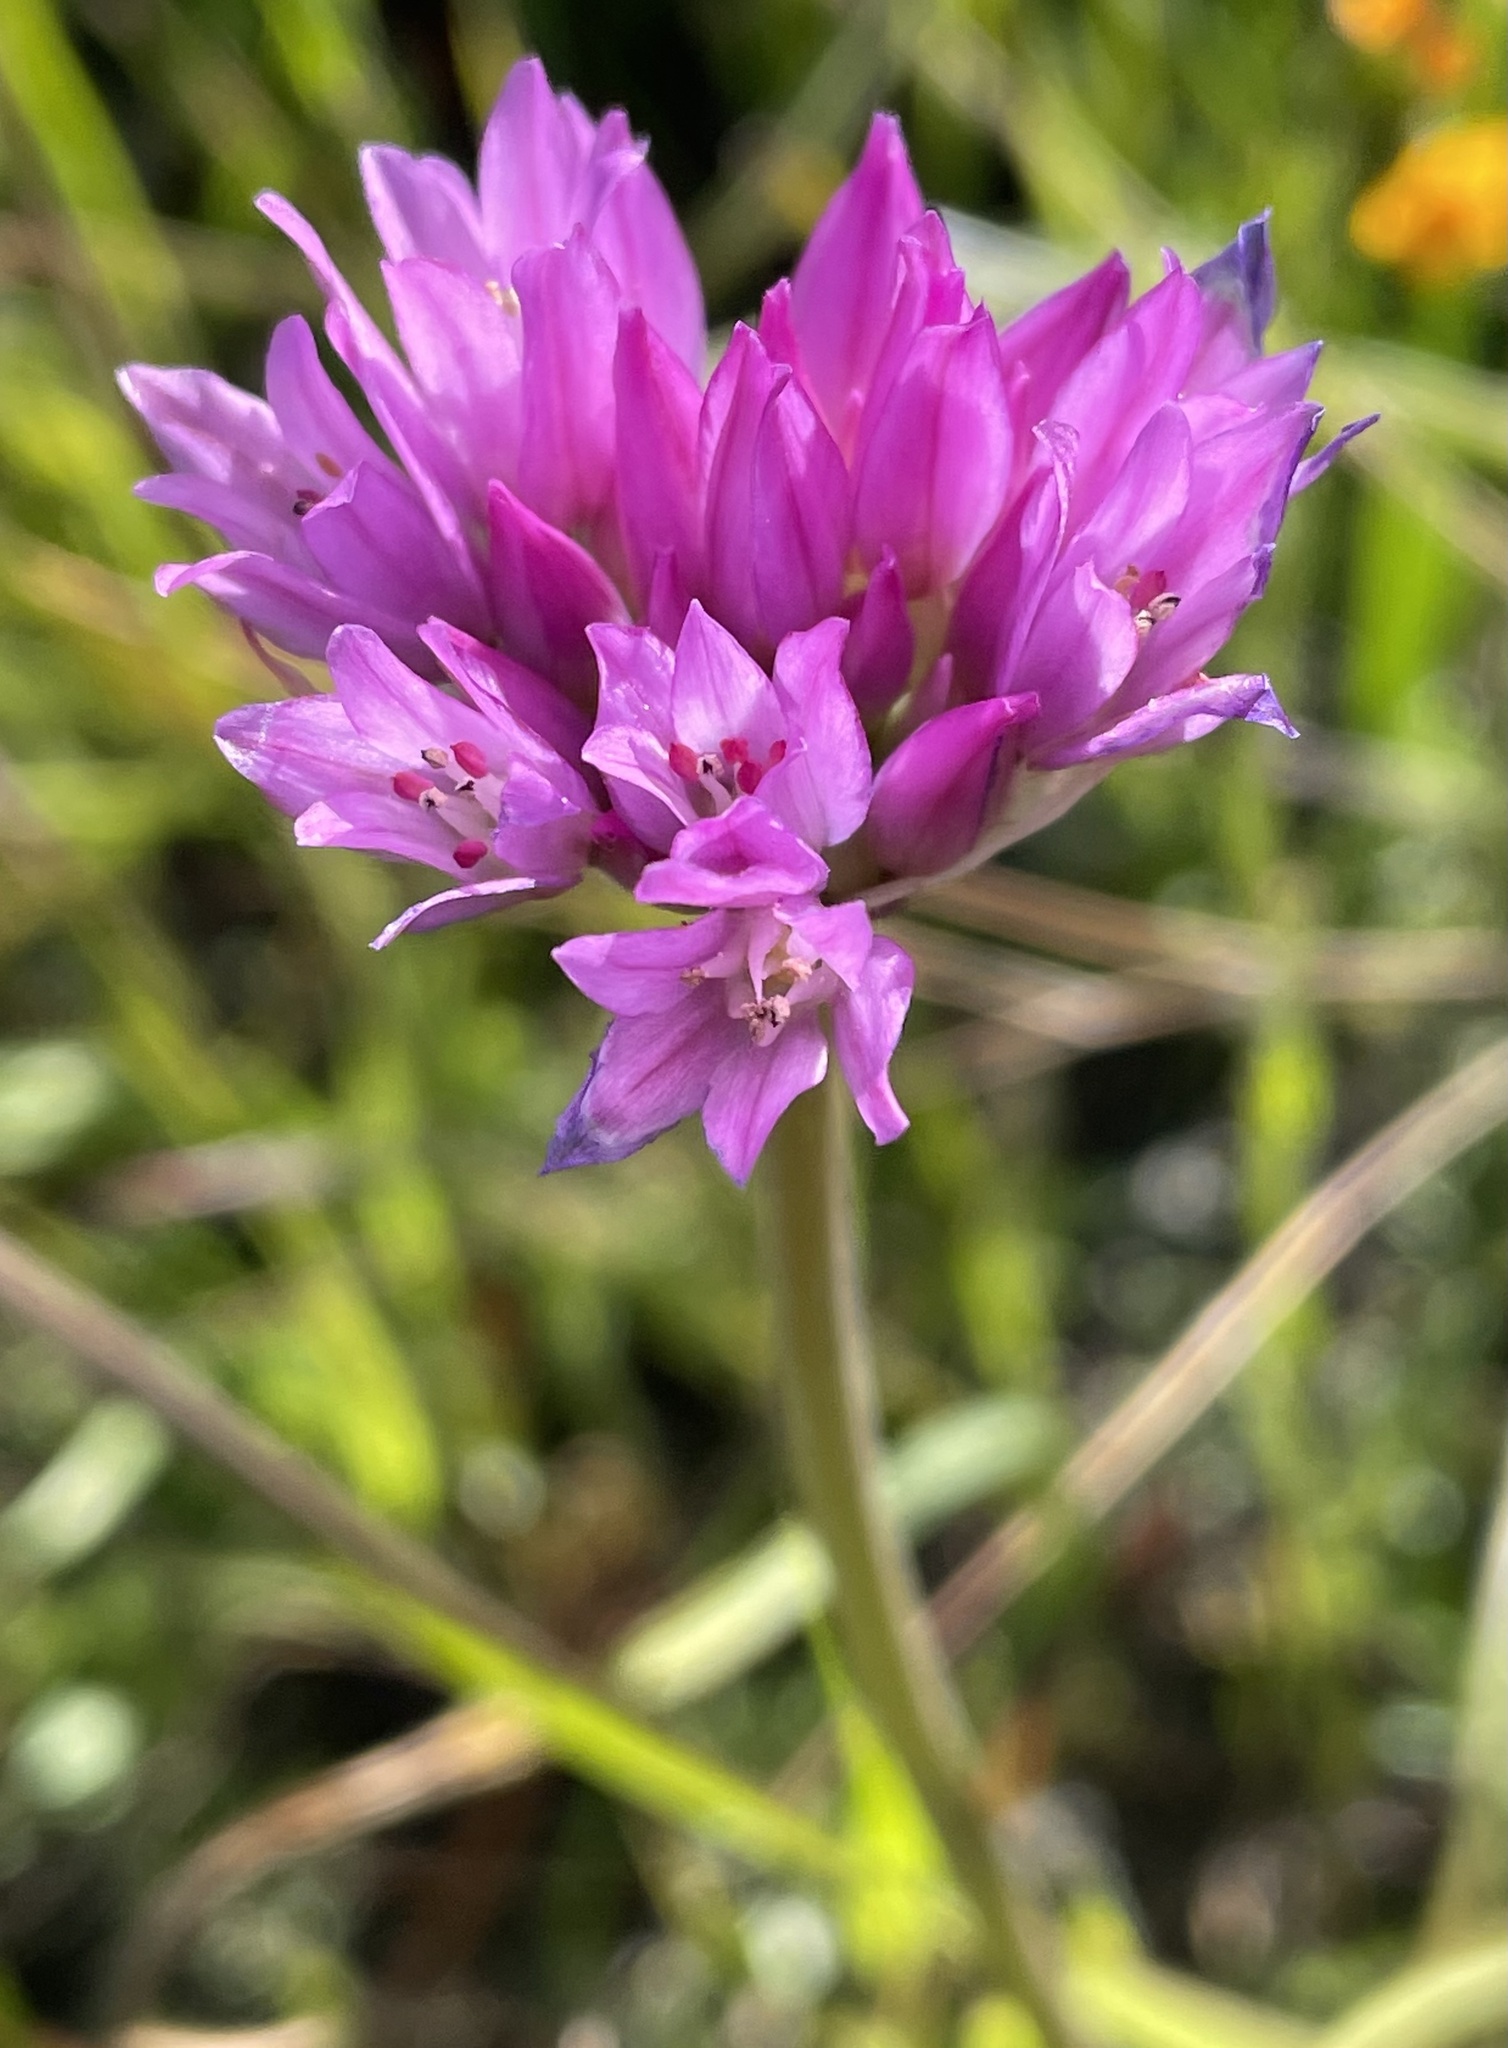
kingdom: Plantae
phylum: Tracheophyta
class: Liliopsida
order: Asparagales
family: Amaryllidaceae
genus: Allium
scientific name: Allium serra
